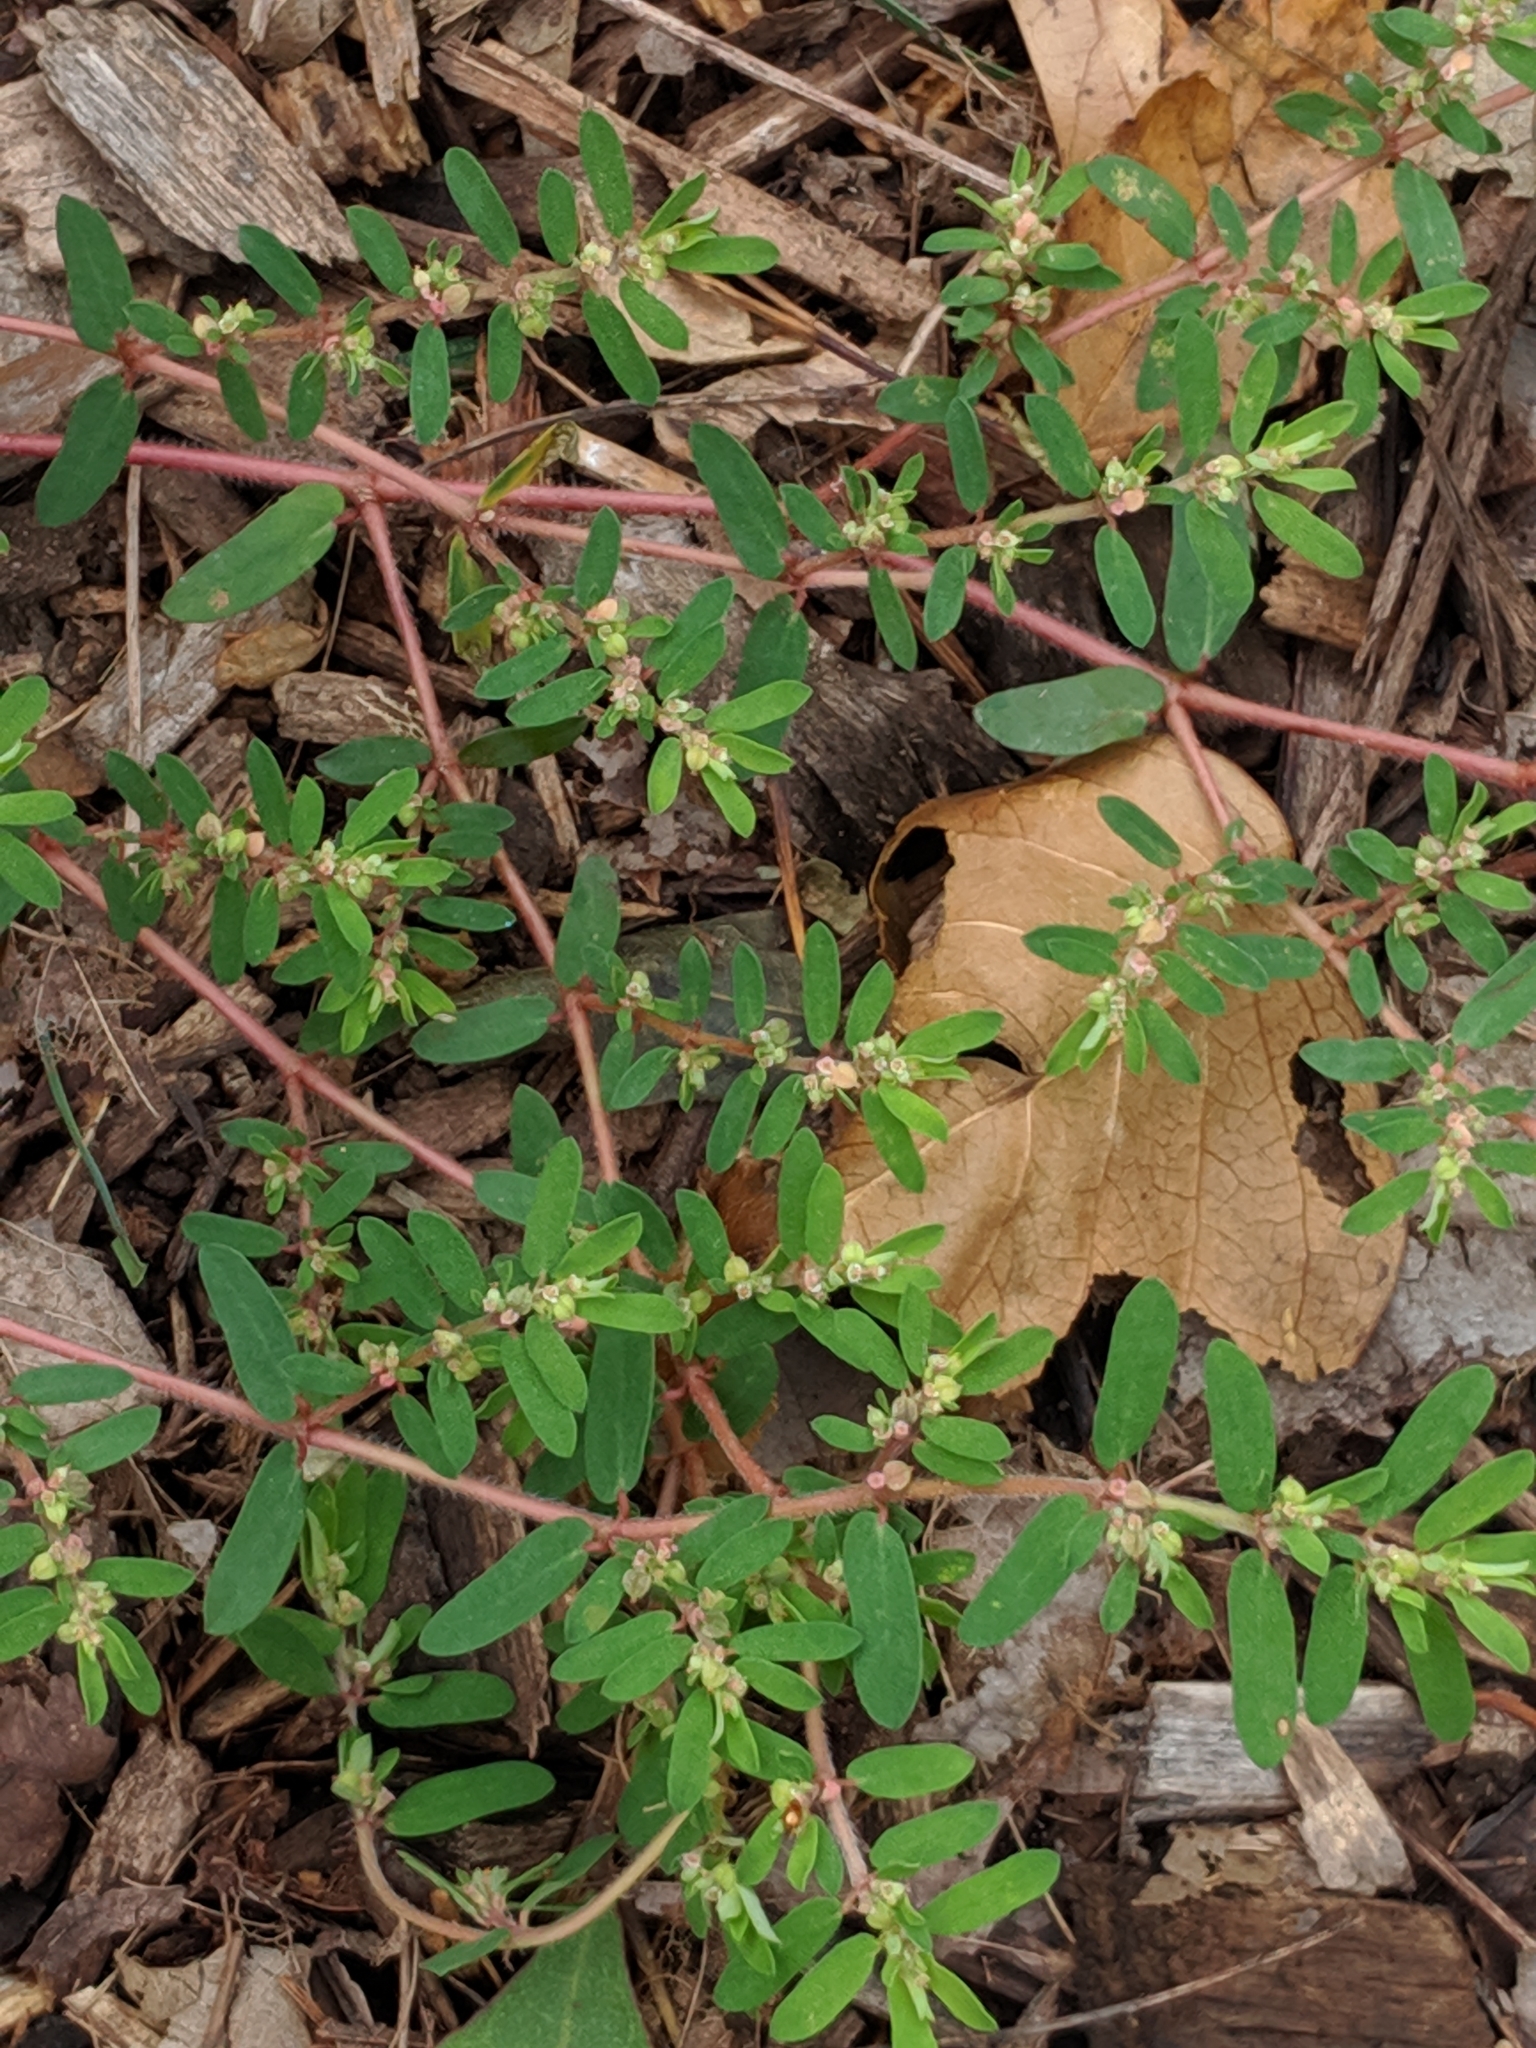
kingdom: Plantae
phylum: Tracheophyta
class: Magnoliopsida
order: Malpighiales
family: Euphorbiaceae
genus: Euphorbia
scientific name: Euphorbia maculata
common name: Spotted spurge
